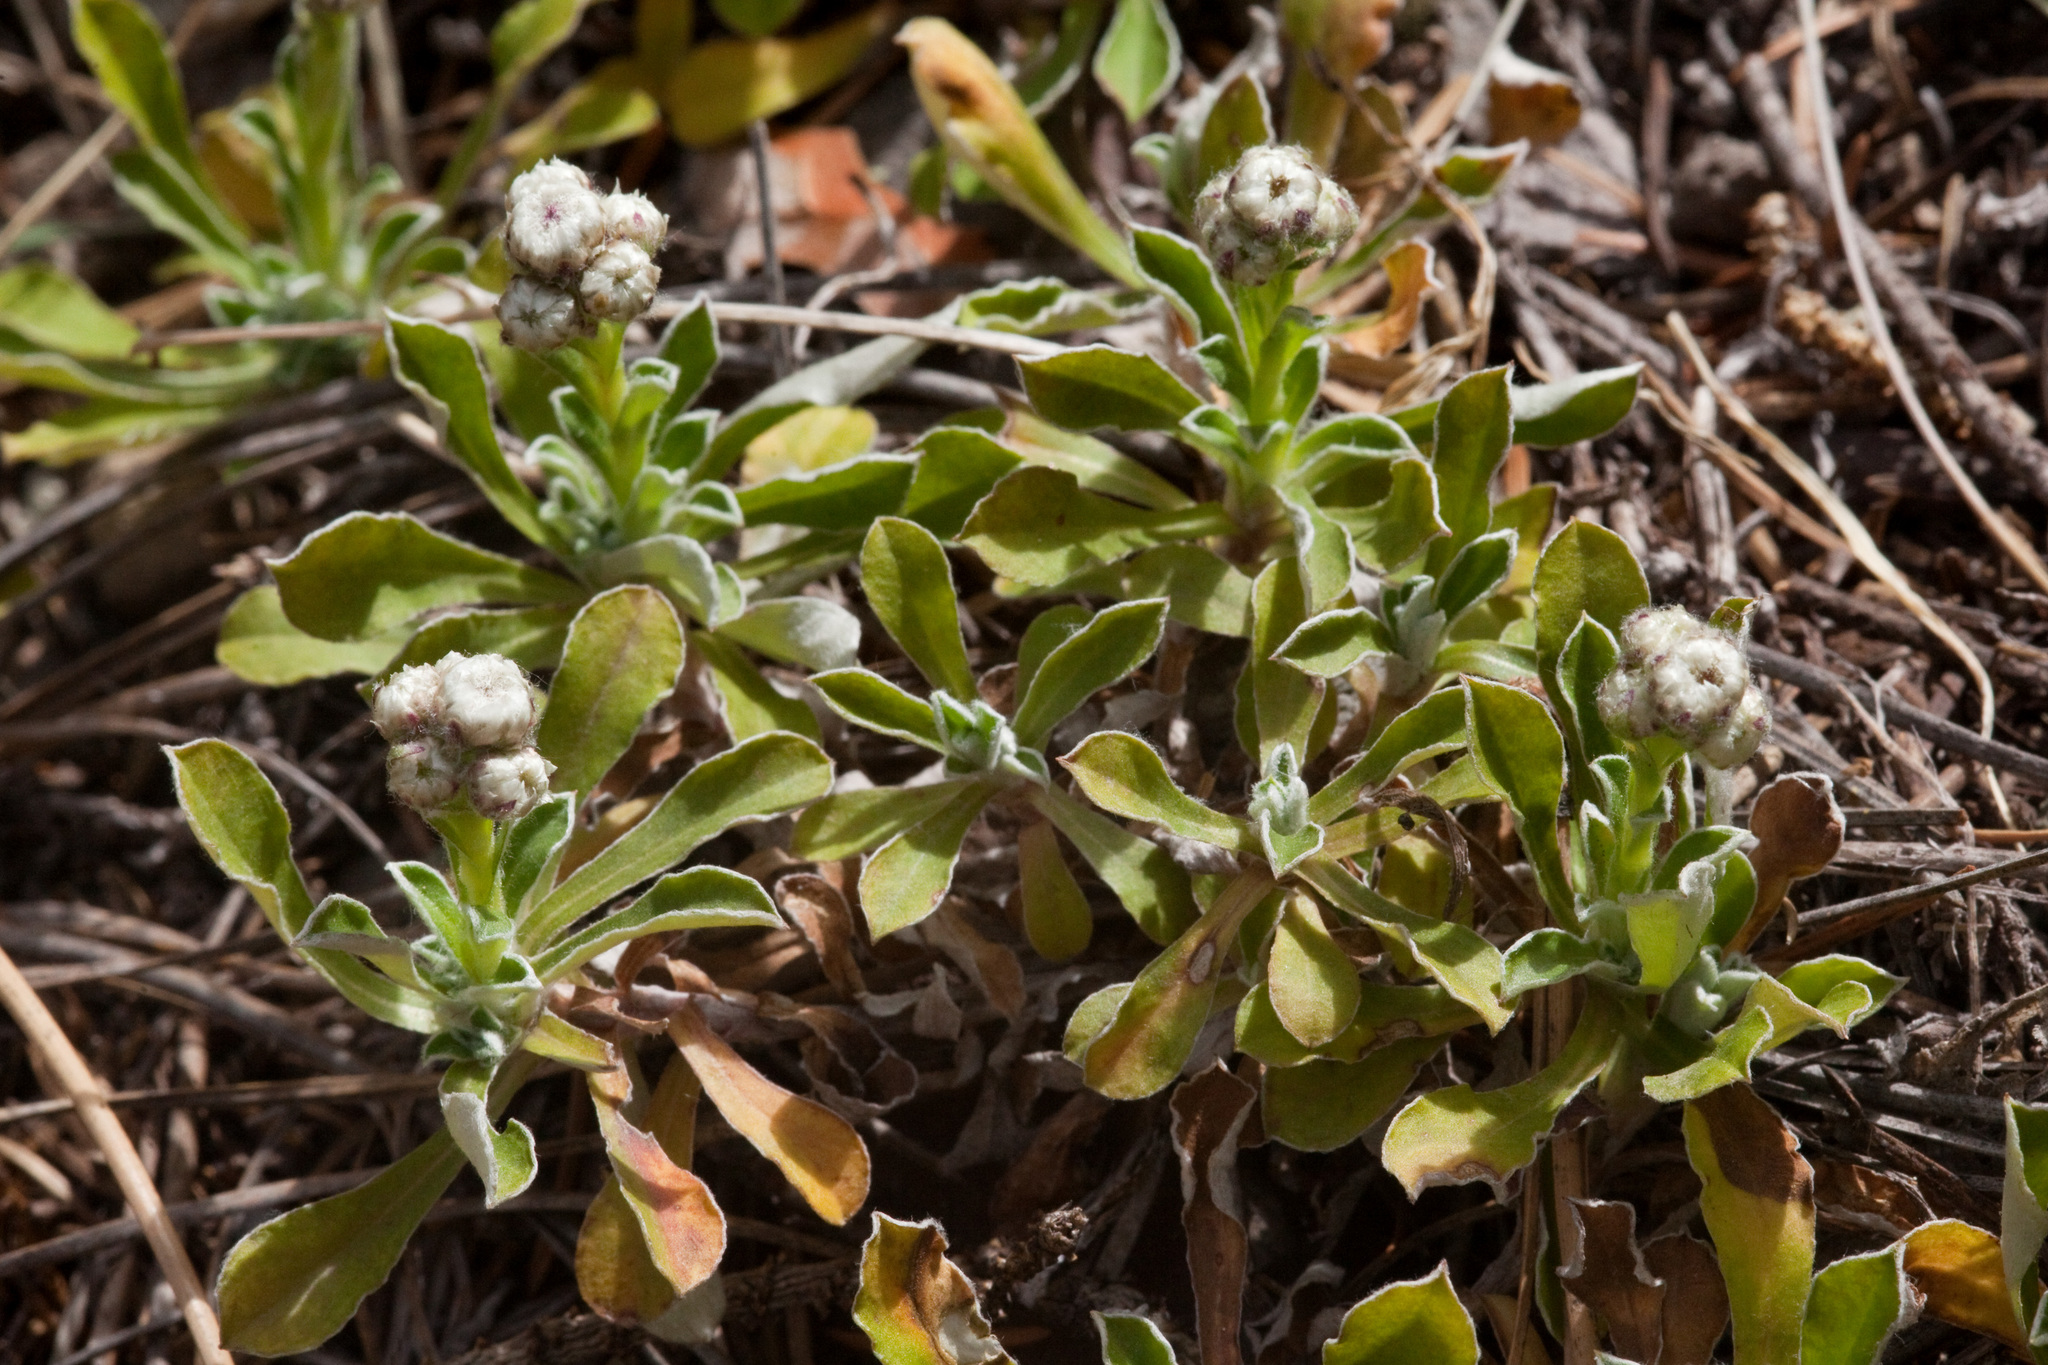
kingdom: Plantae
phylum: Tracheophyta
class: Magnoliopsida
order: Asterales
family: Asteraceae
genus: Antennaria
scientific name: Antennaria marginata
